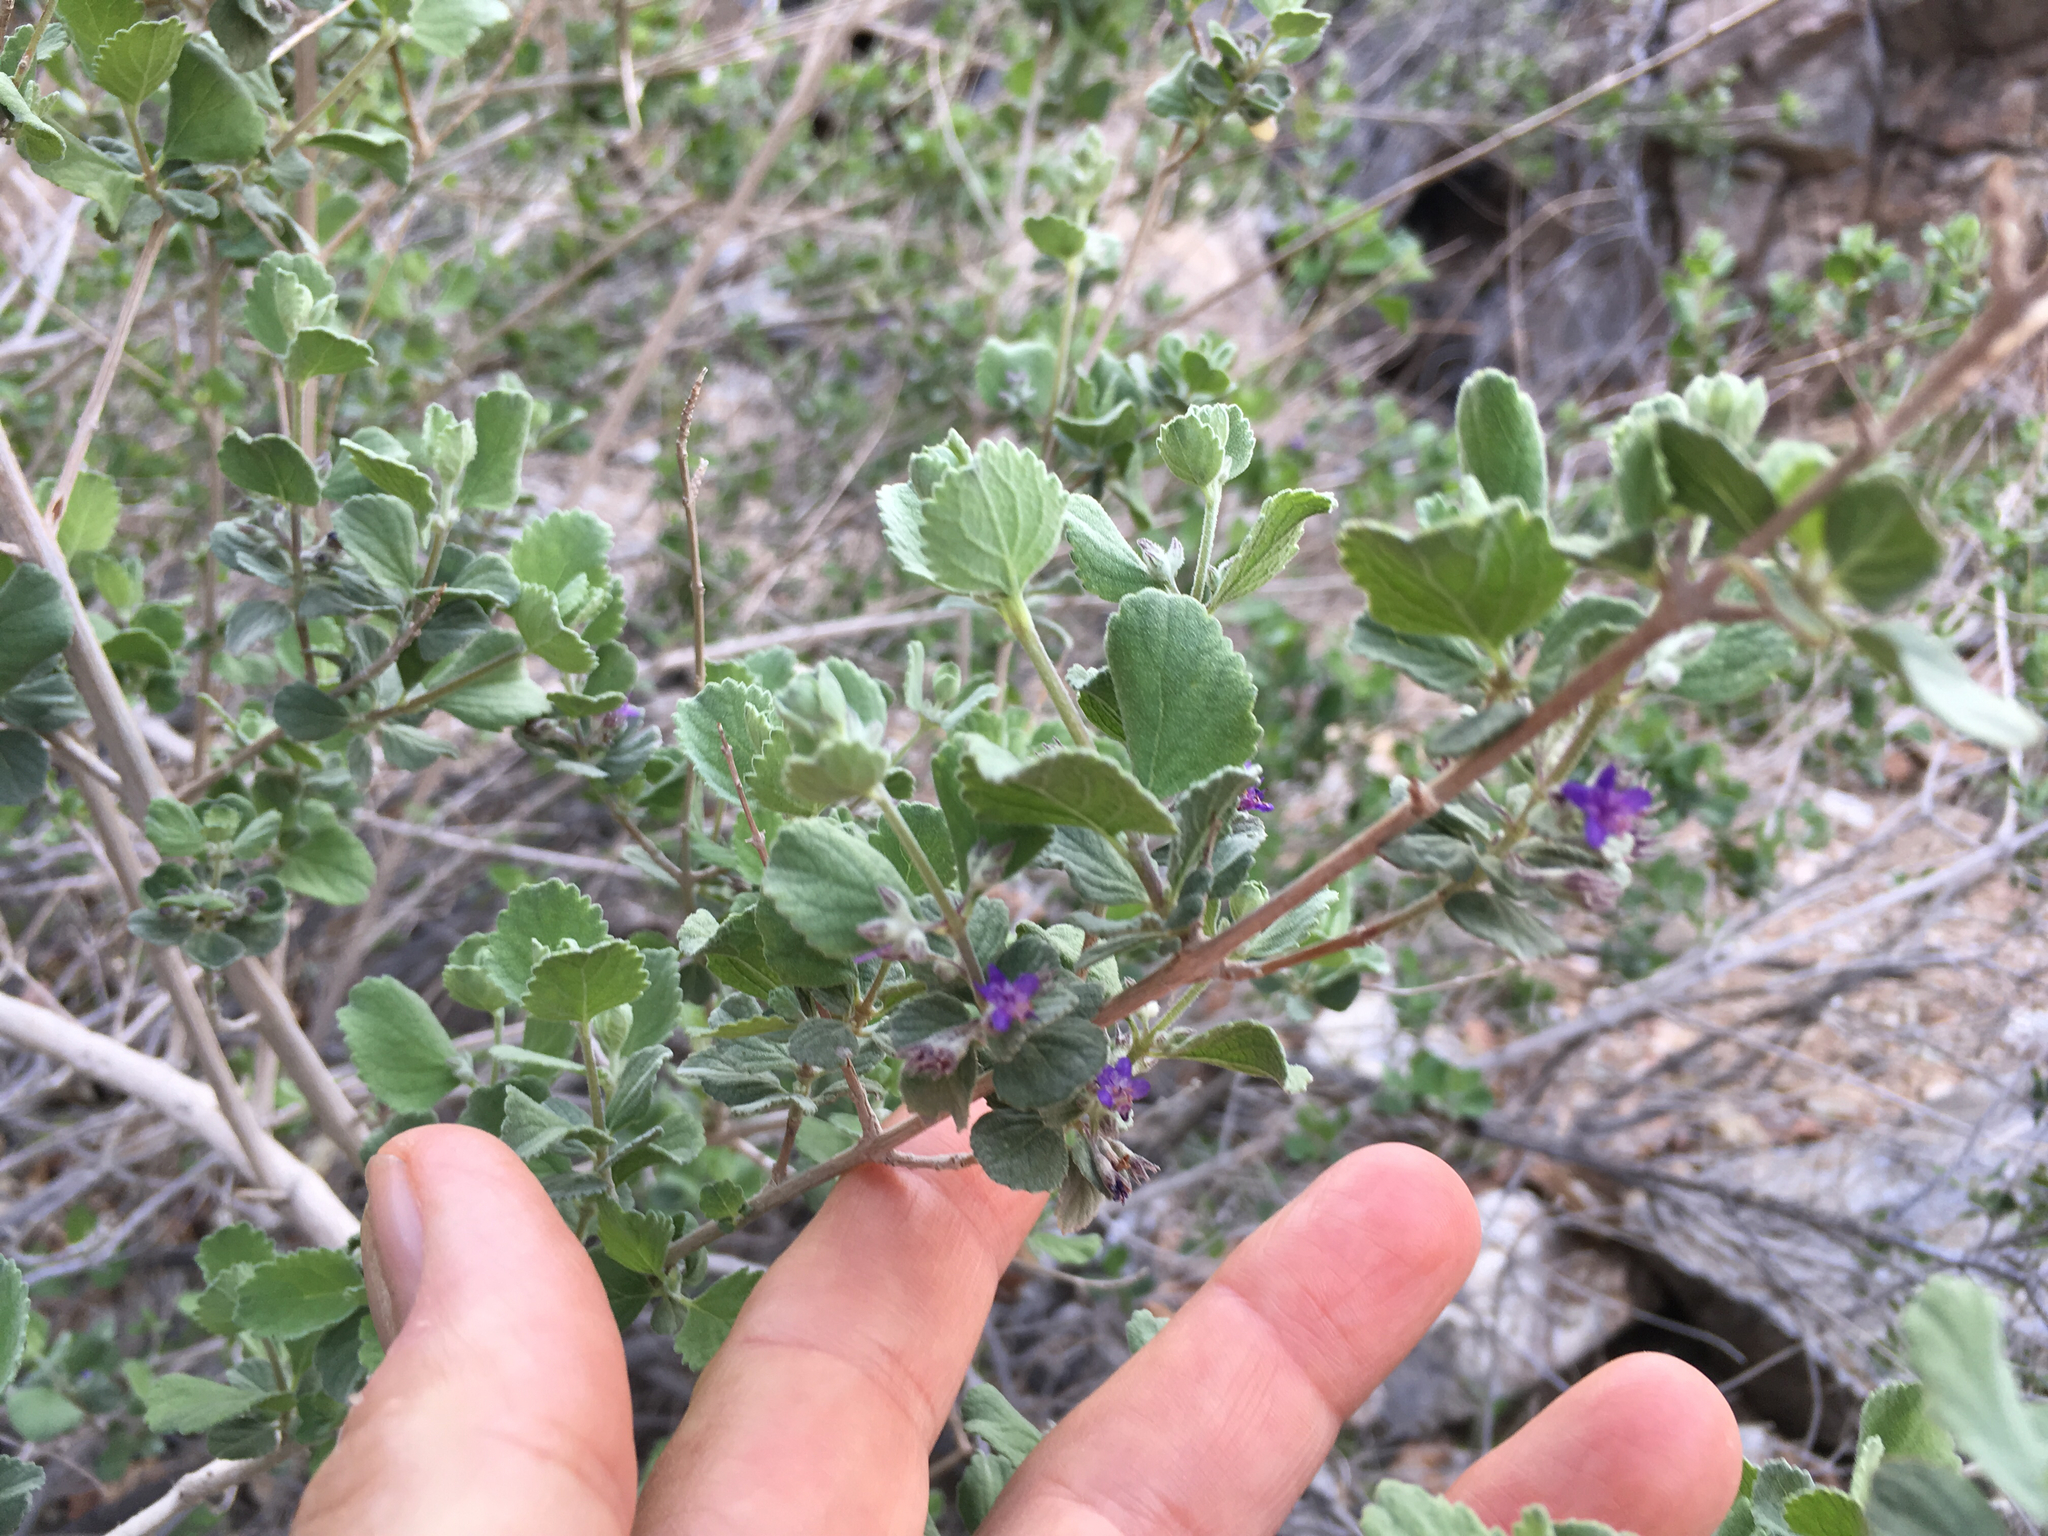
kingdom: Plantae
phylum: Tracheophyta
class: Magnoliopsida
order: Lamiales
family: Lamiaceae
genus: Condea
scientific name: Condea emoryi
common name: Chia
